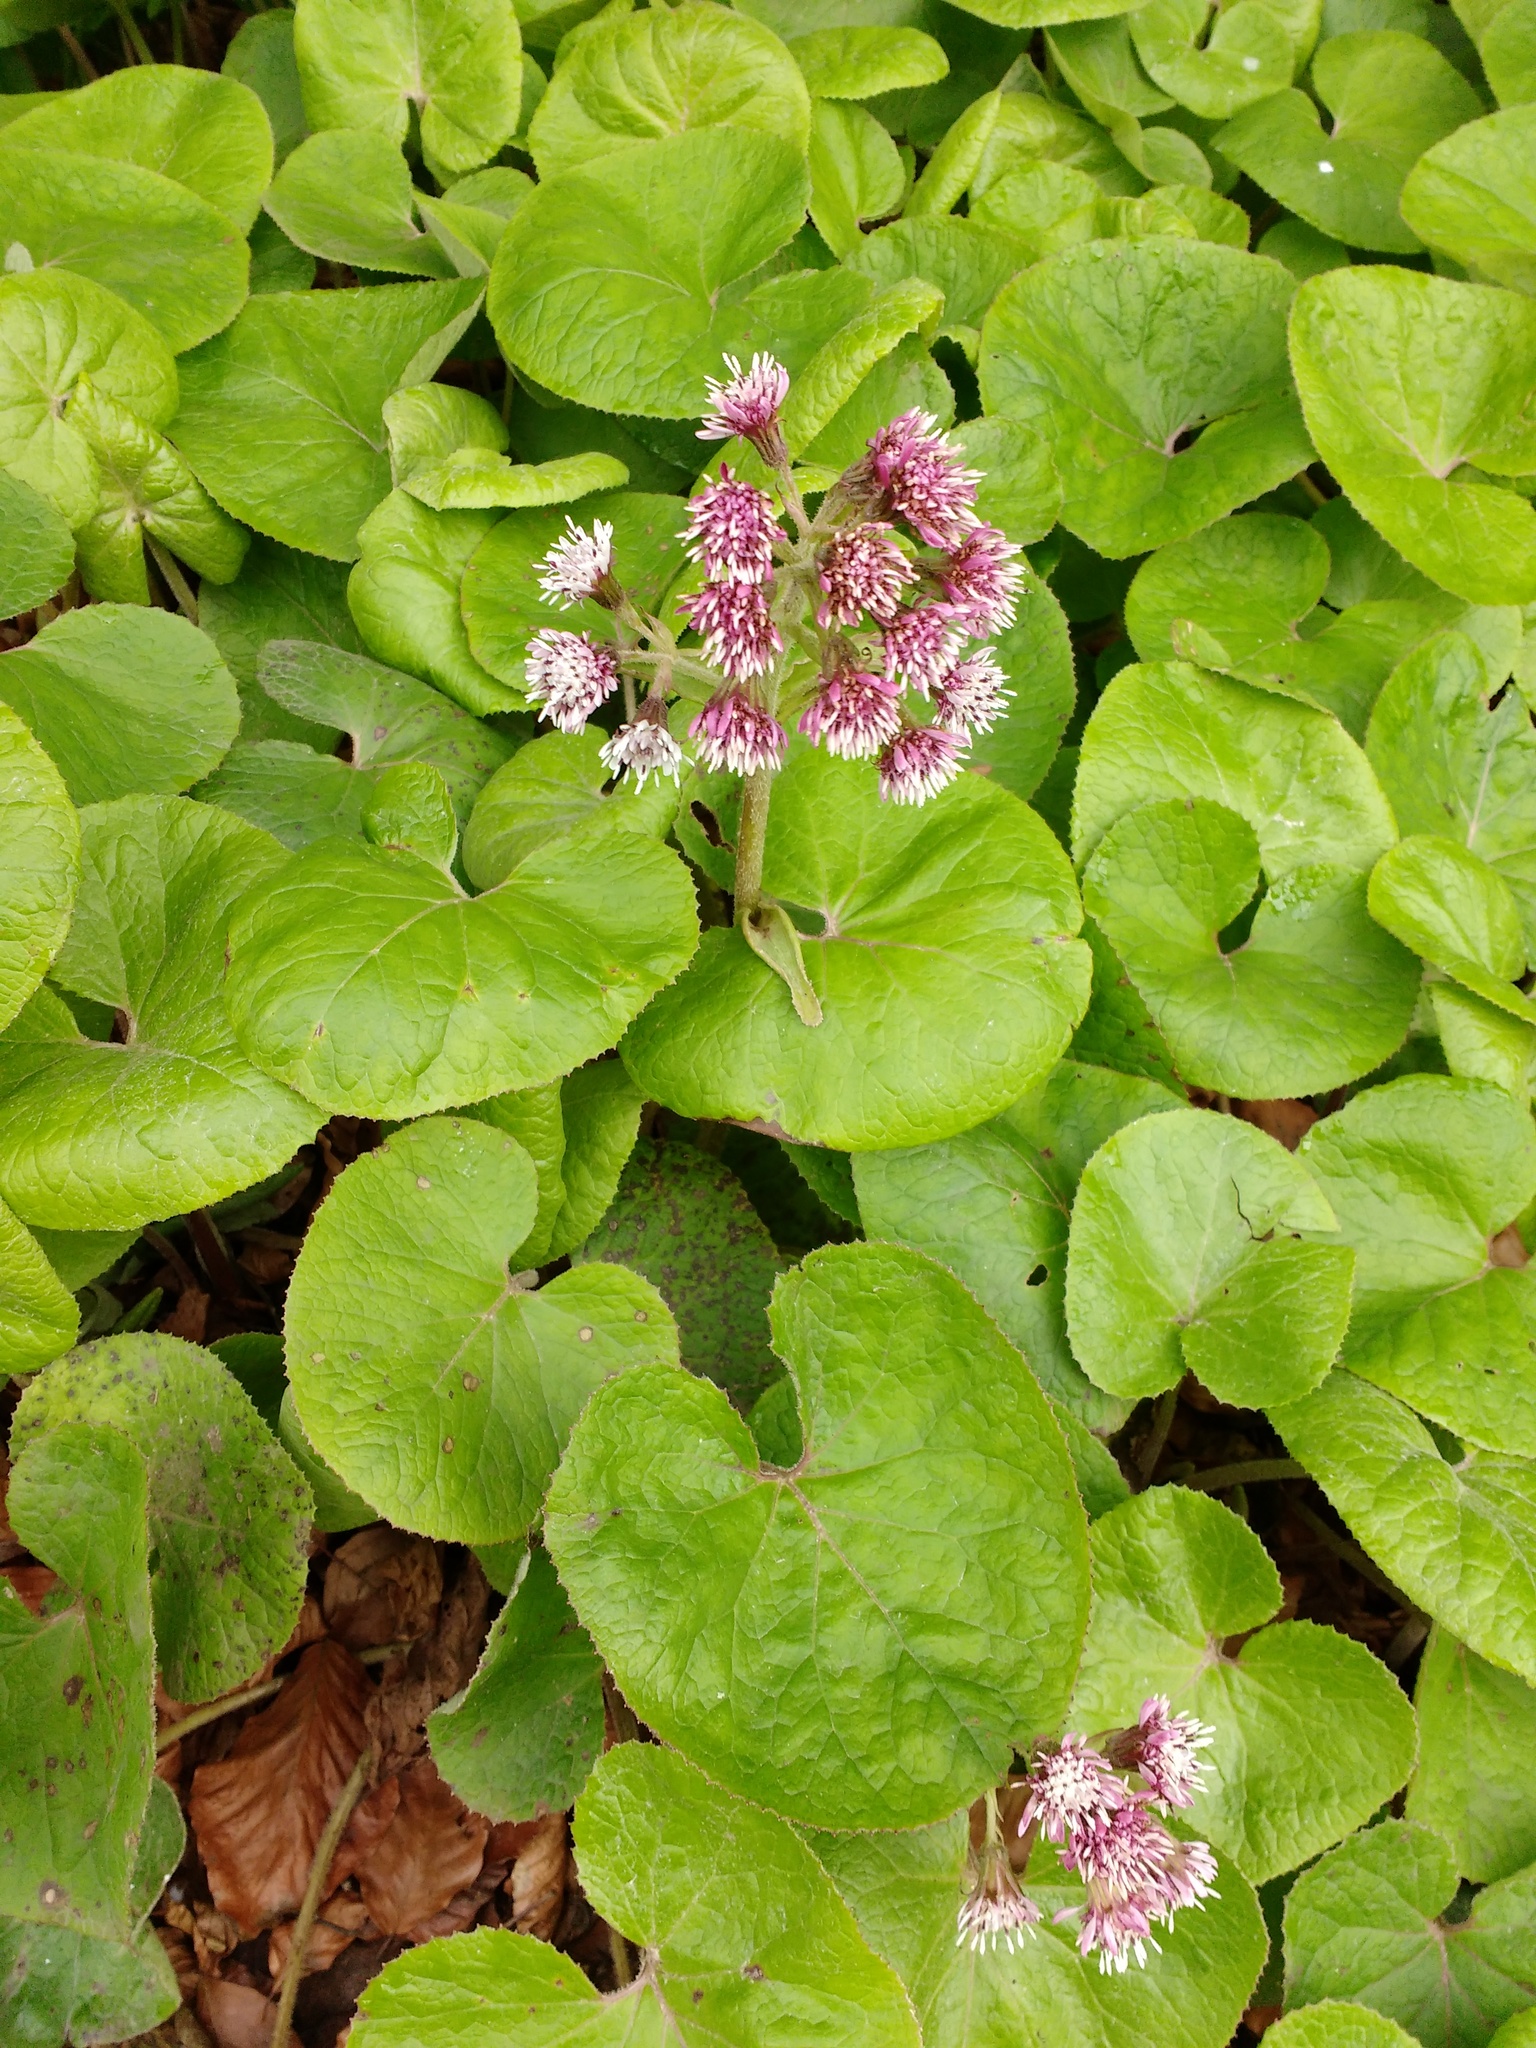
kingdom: Plantae
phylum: Tracheophyta
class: Magnoliopsida
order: Asterales
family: Asteraceae
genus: Petasites
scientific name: Petasites pyrenaicus
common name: Winter heliotrope
